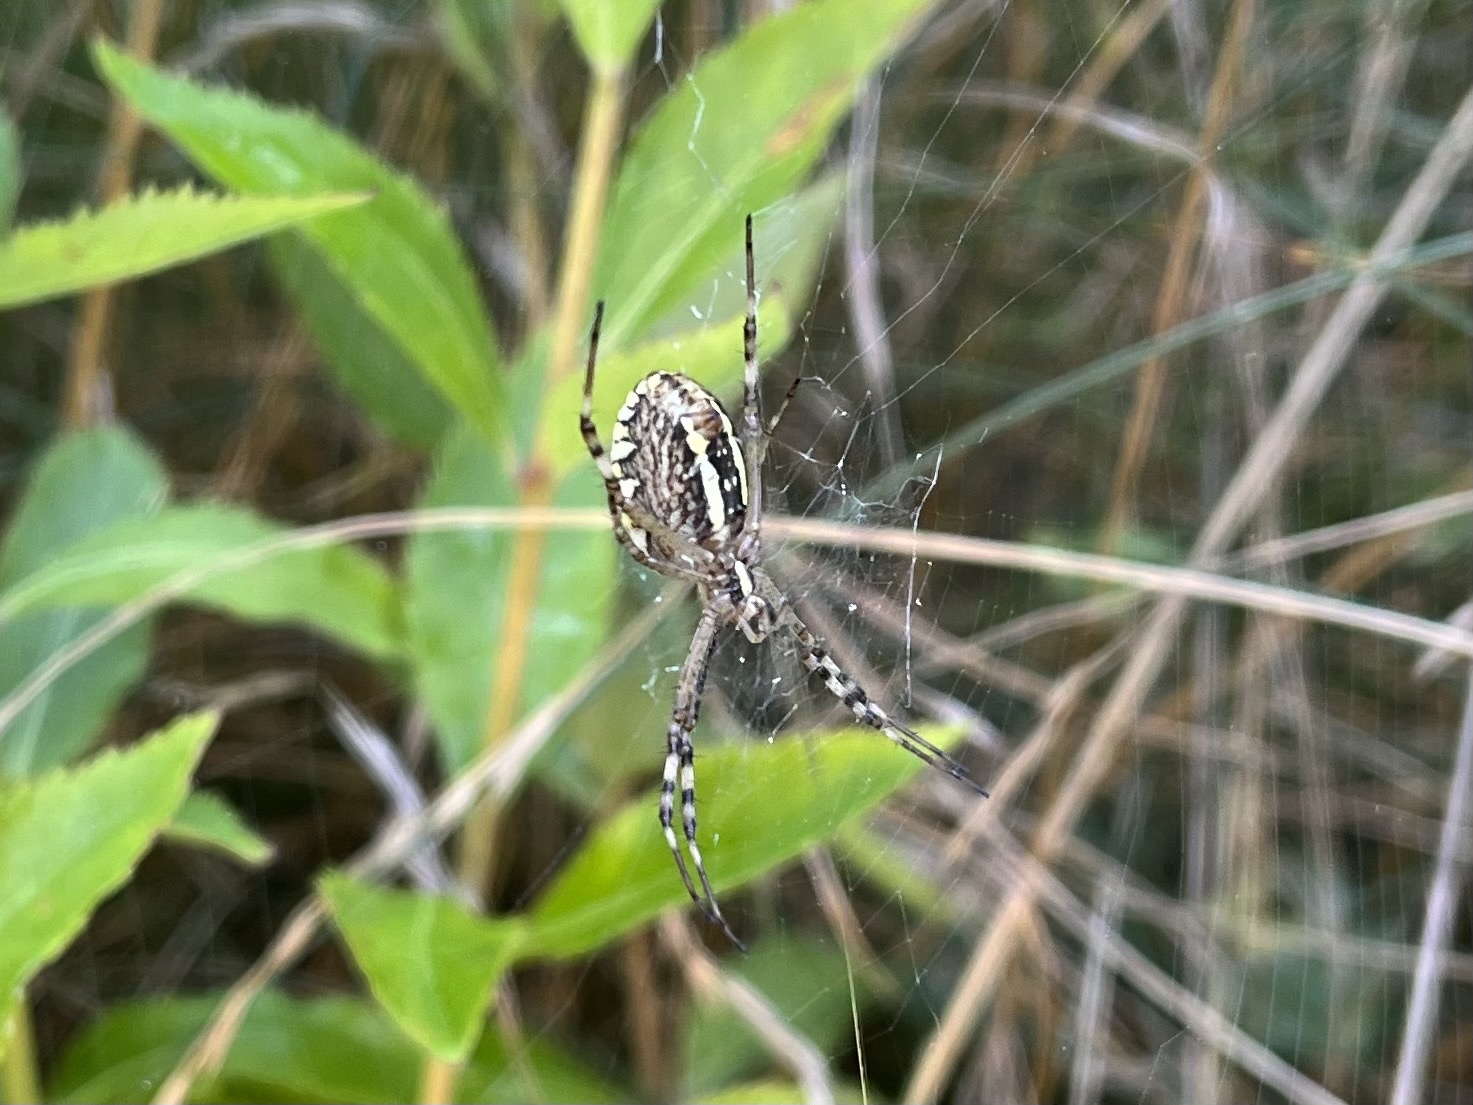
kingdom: Animalia
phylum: Arthropoda
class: Arachnida
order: Araneae
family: Araneidae
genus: Argiope
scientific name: Argiope bruennichi
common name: Wasp spider
